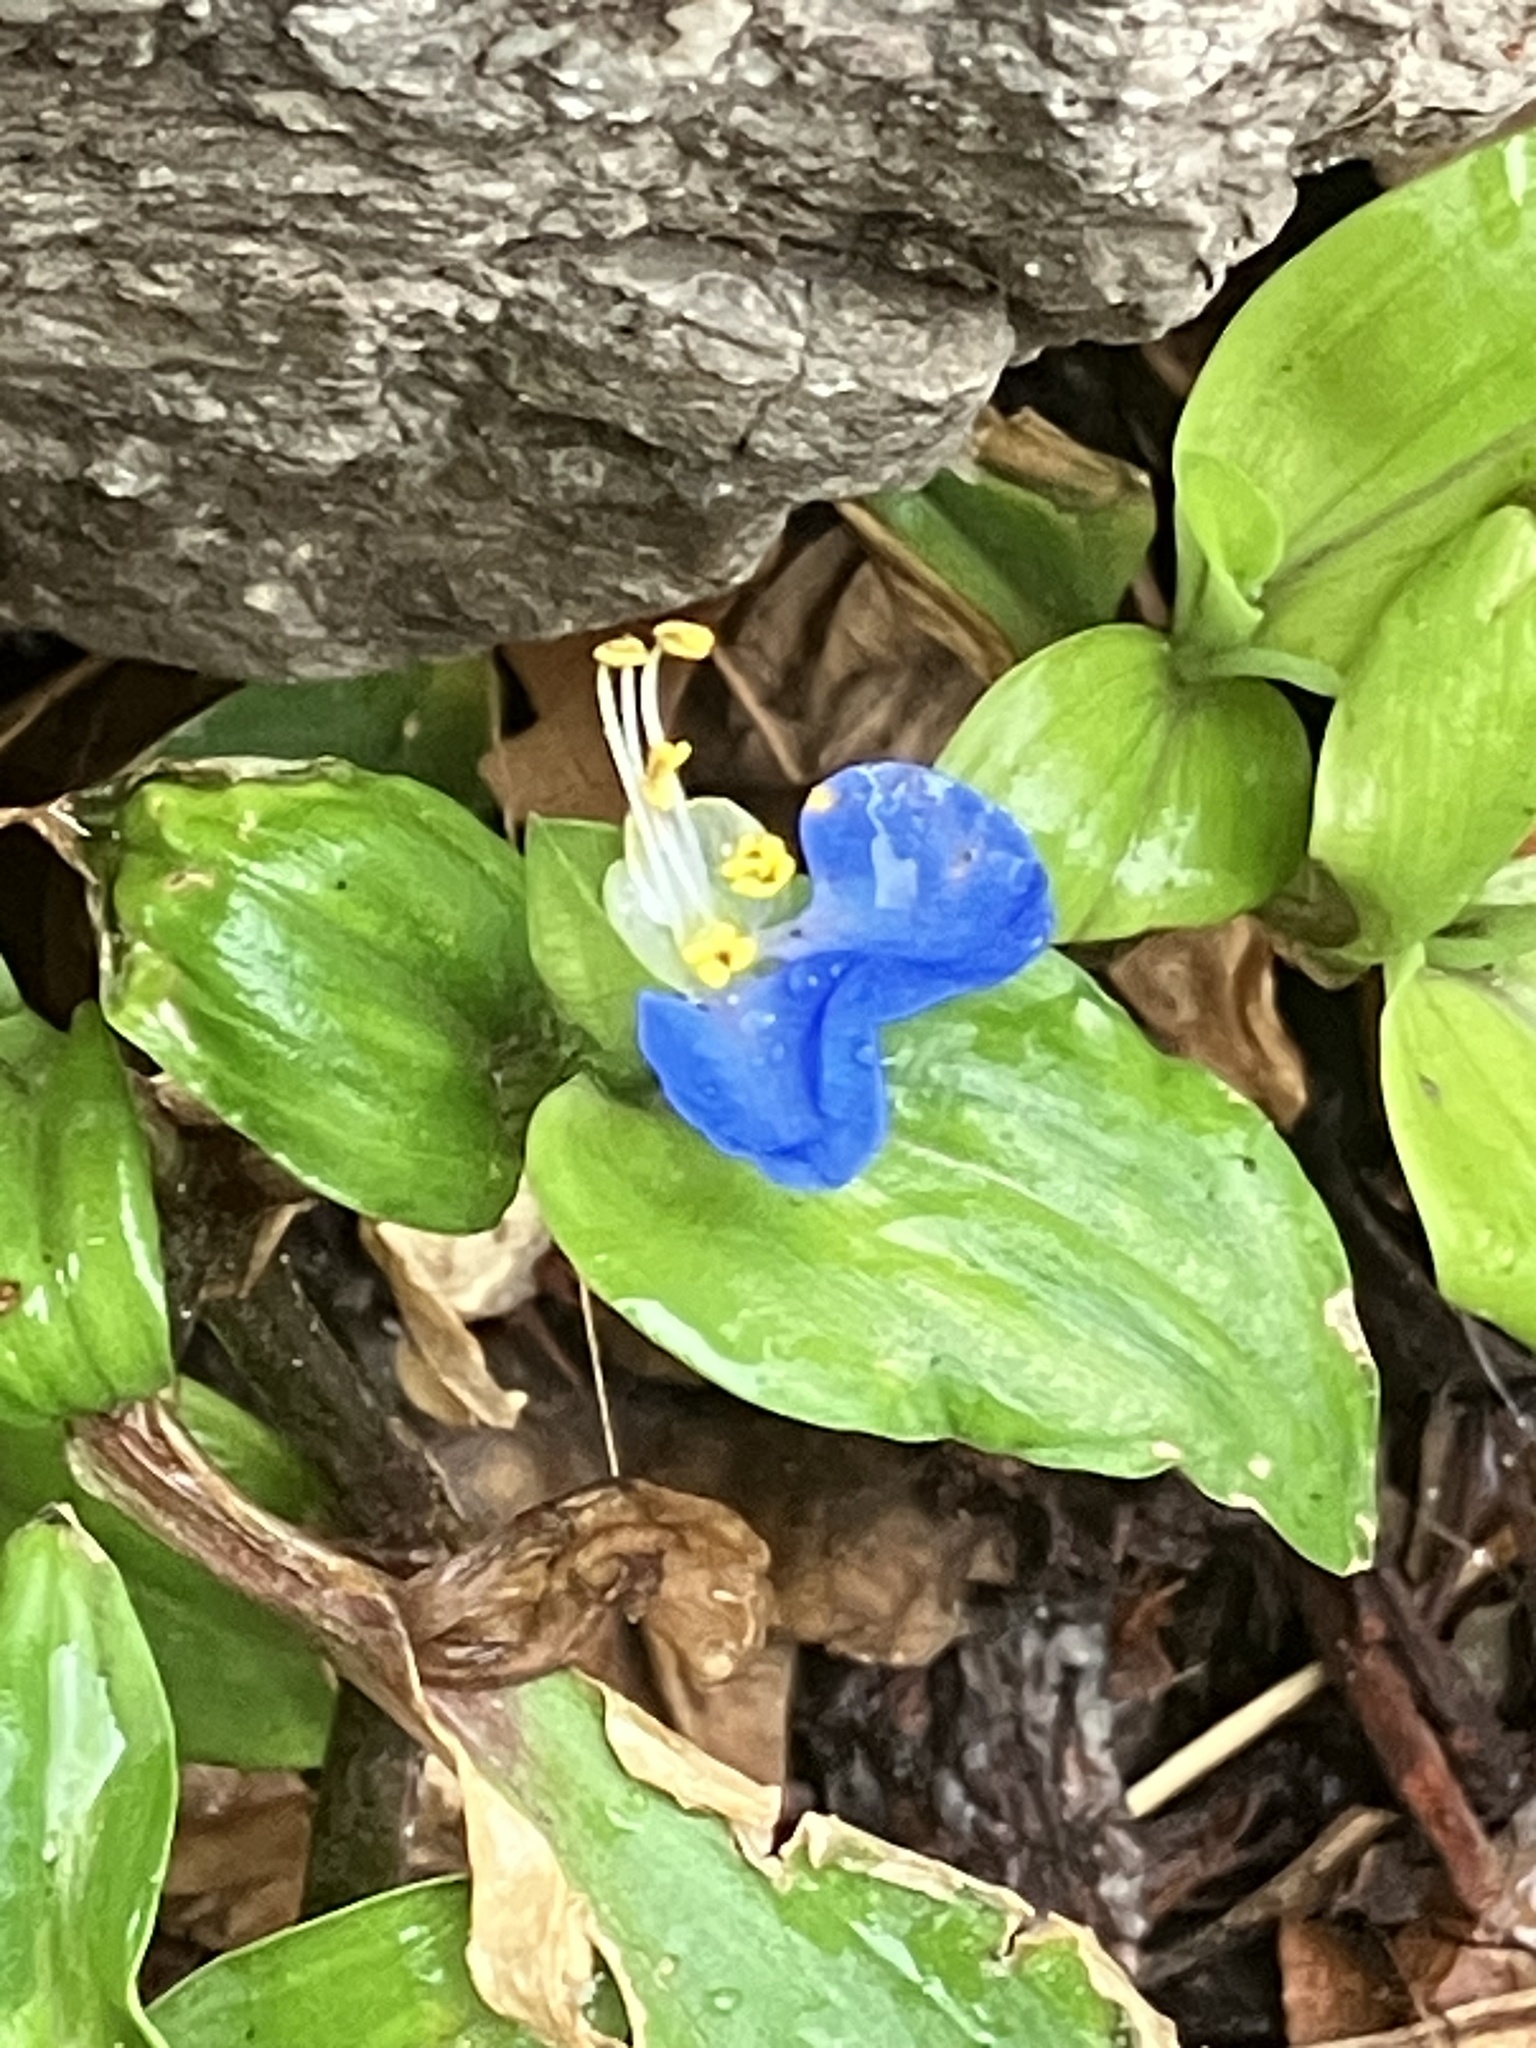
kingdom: Plantae
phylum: Tracheophyta
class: Liliopsida
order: Commelinales
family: Commelinaceae
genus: Commelina
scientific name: Commelina communis
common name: Asiatic dayflower
